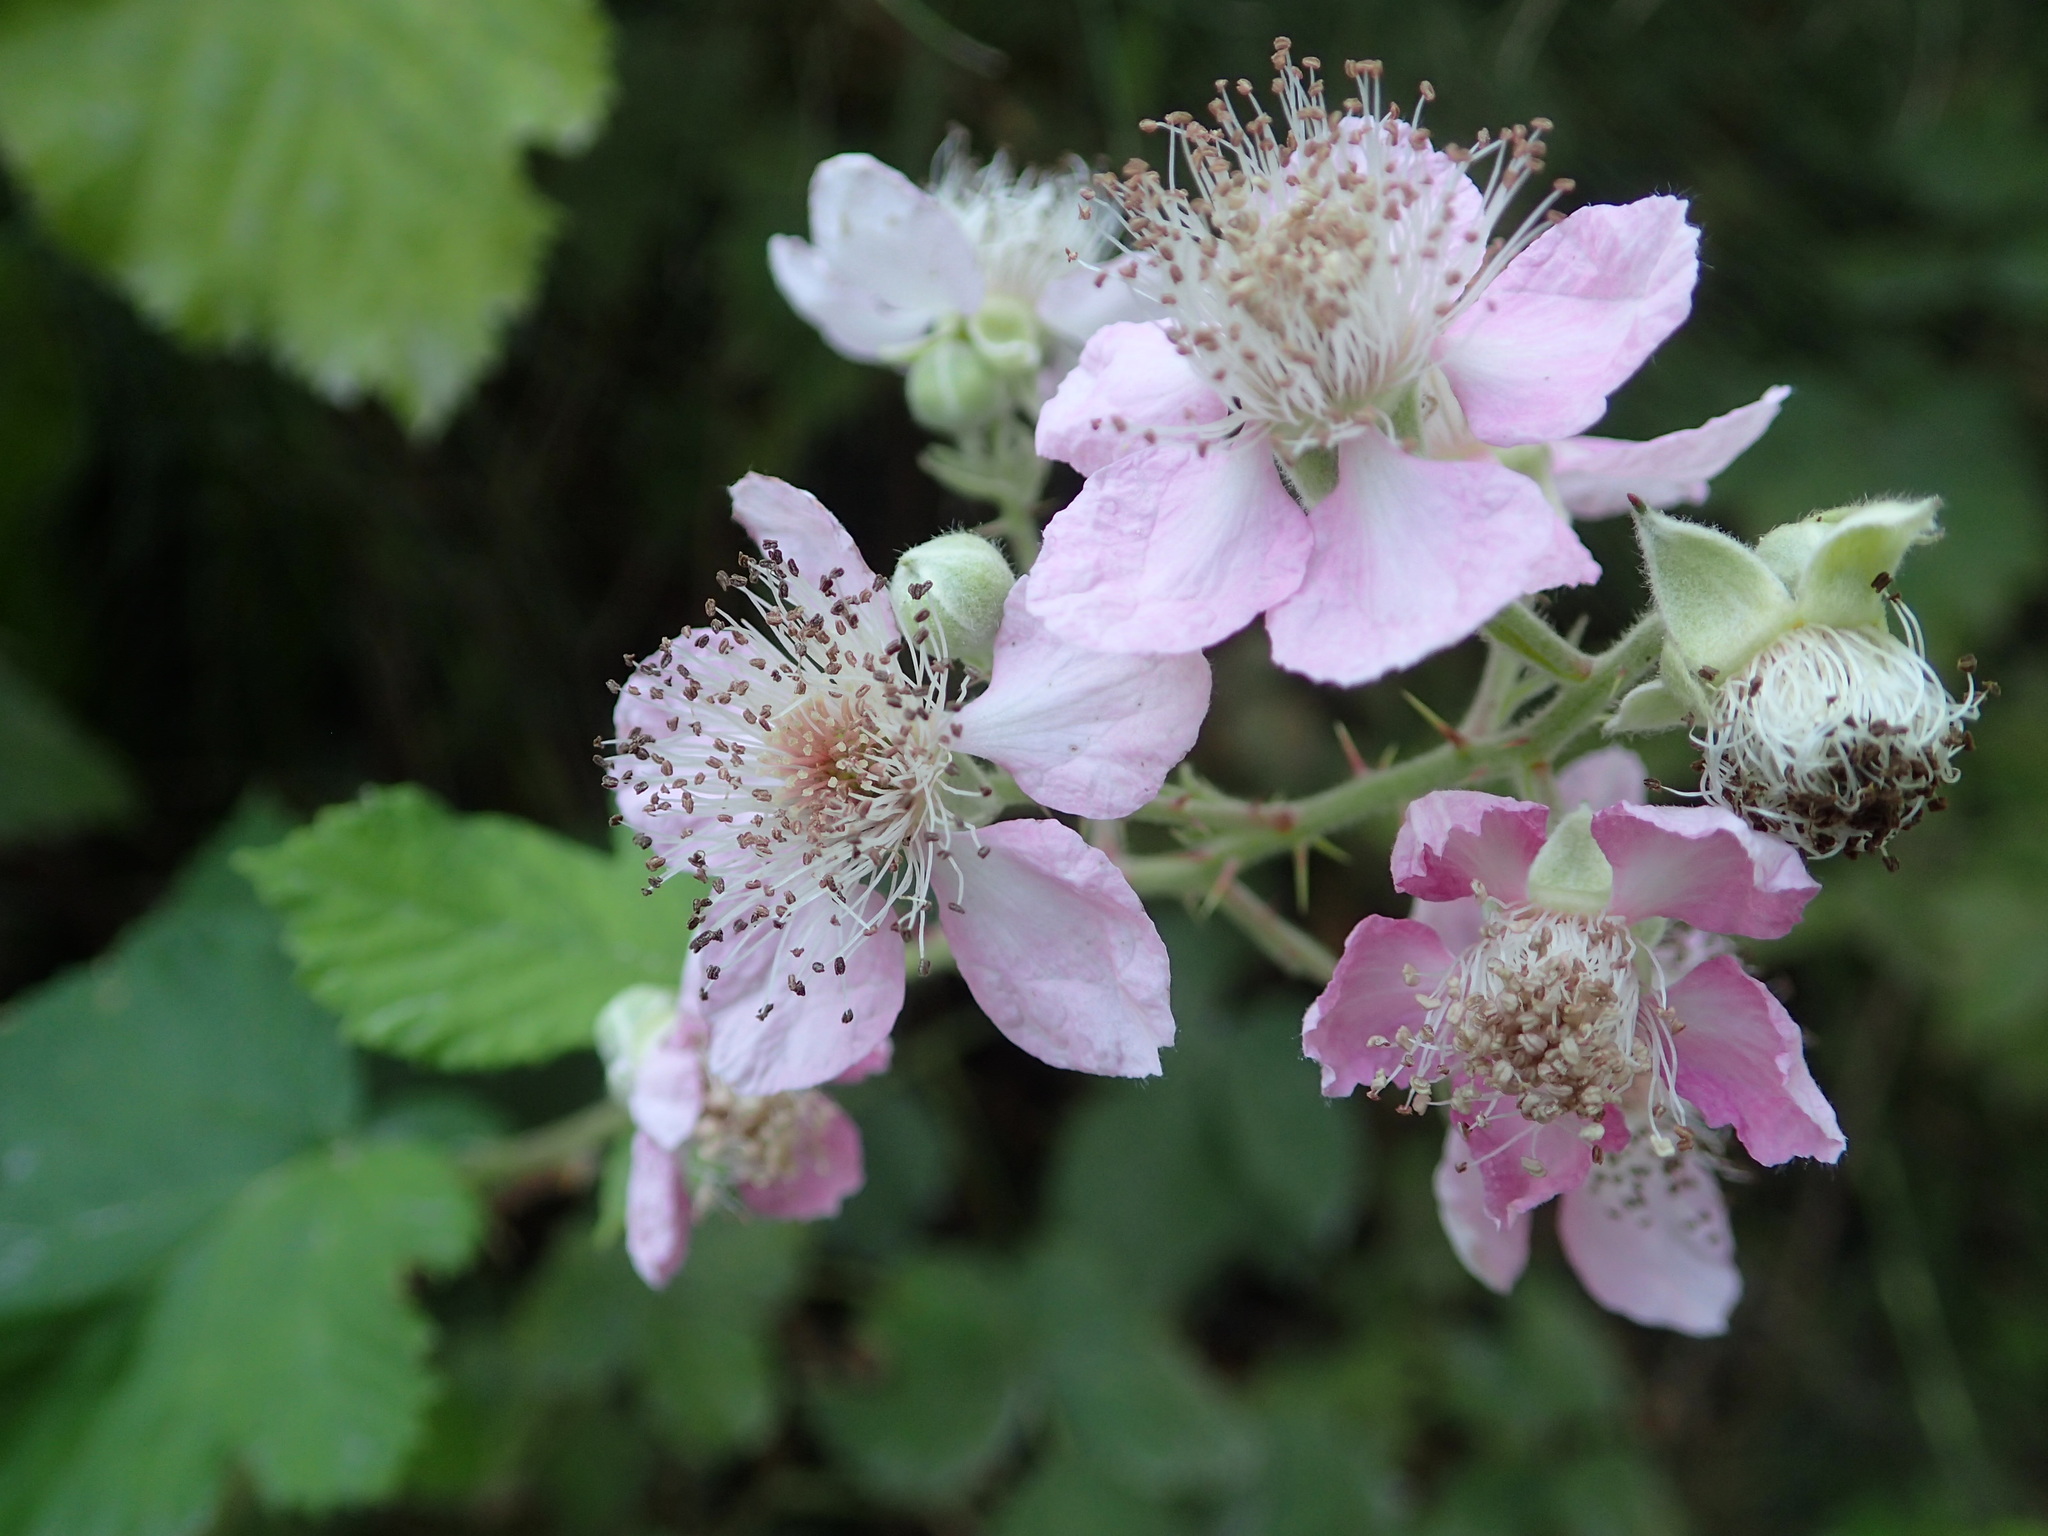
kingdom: Plantae
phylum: Tracheophyta
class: Magnoliopsida
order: Rosales
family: Rosaceae
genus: Rubus
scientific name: Rubus armeniacus
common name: Himalayan blackberry
